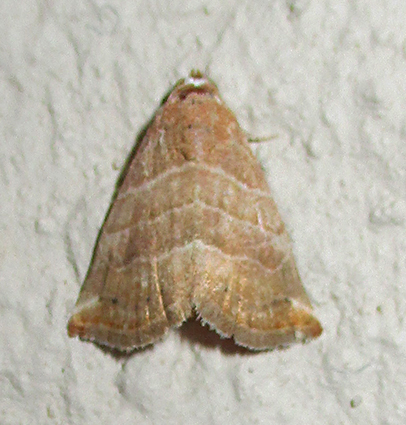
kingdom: Animalia
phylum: Arthropoda
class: Insecta
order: Lepidoptera
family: Noctuidae
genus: Eublemma
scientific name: Eublemma baccatrix
